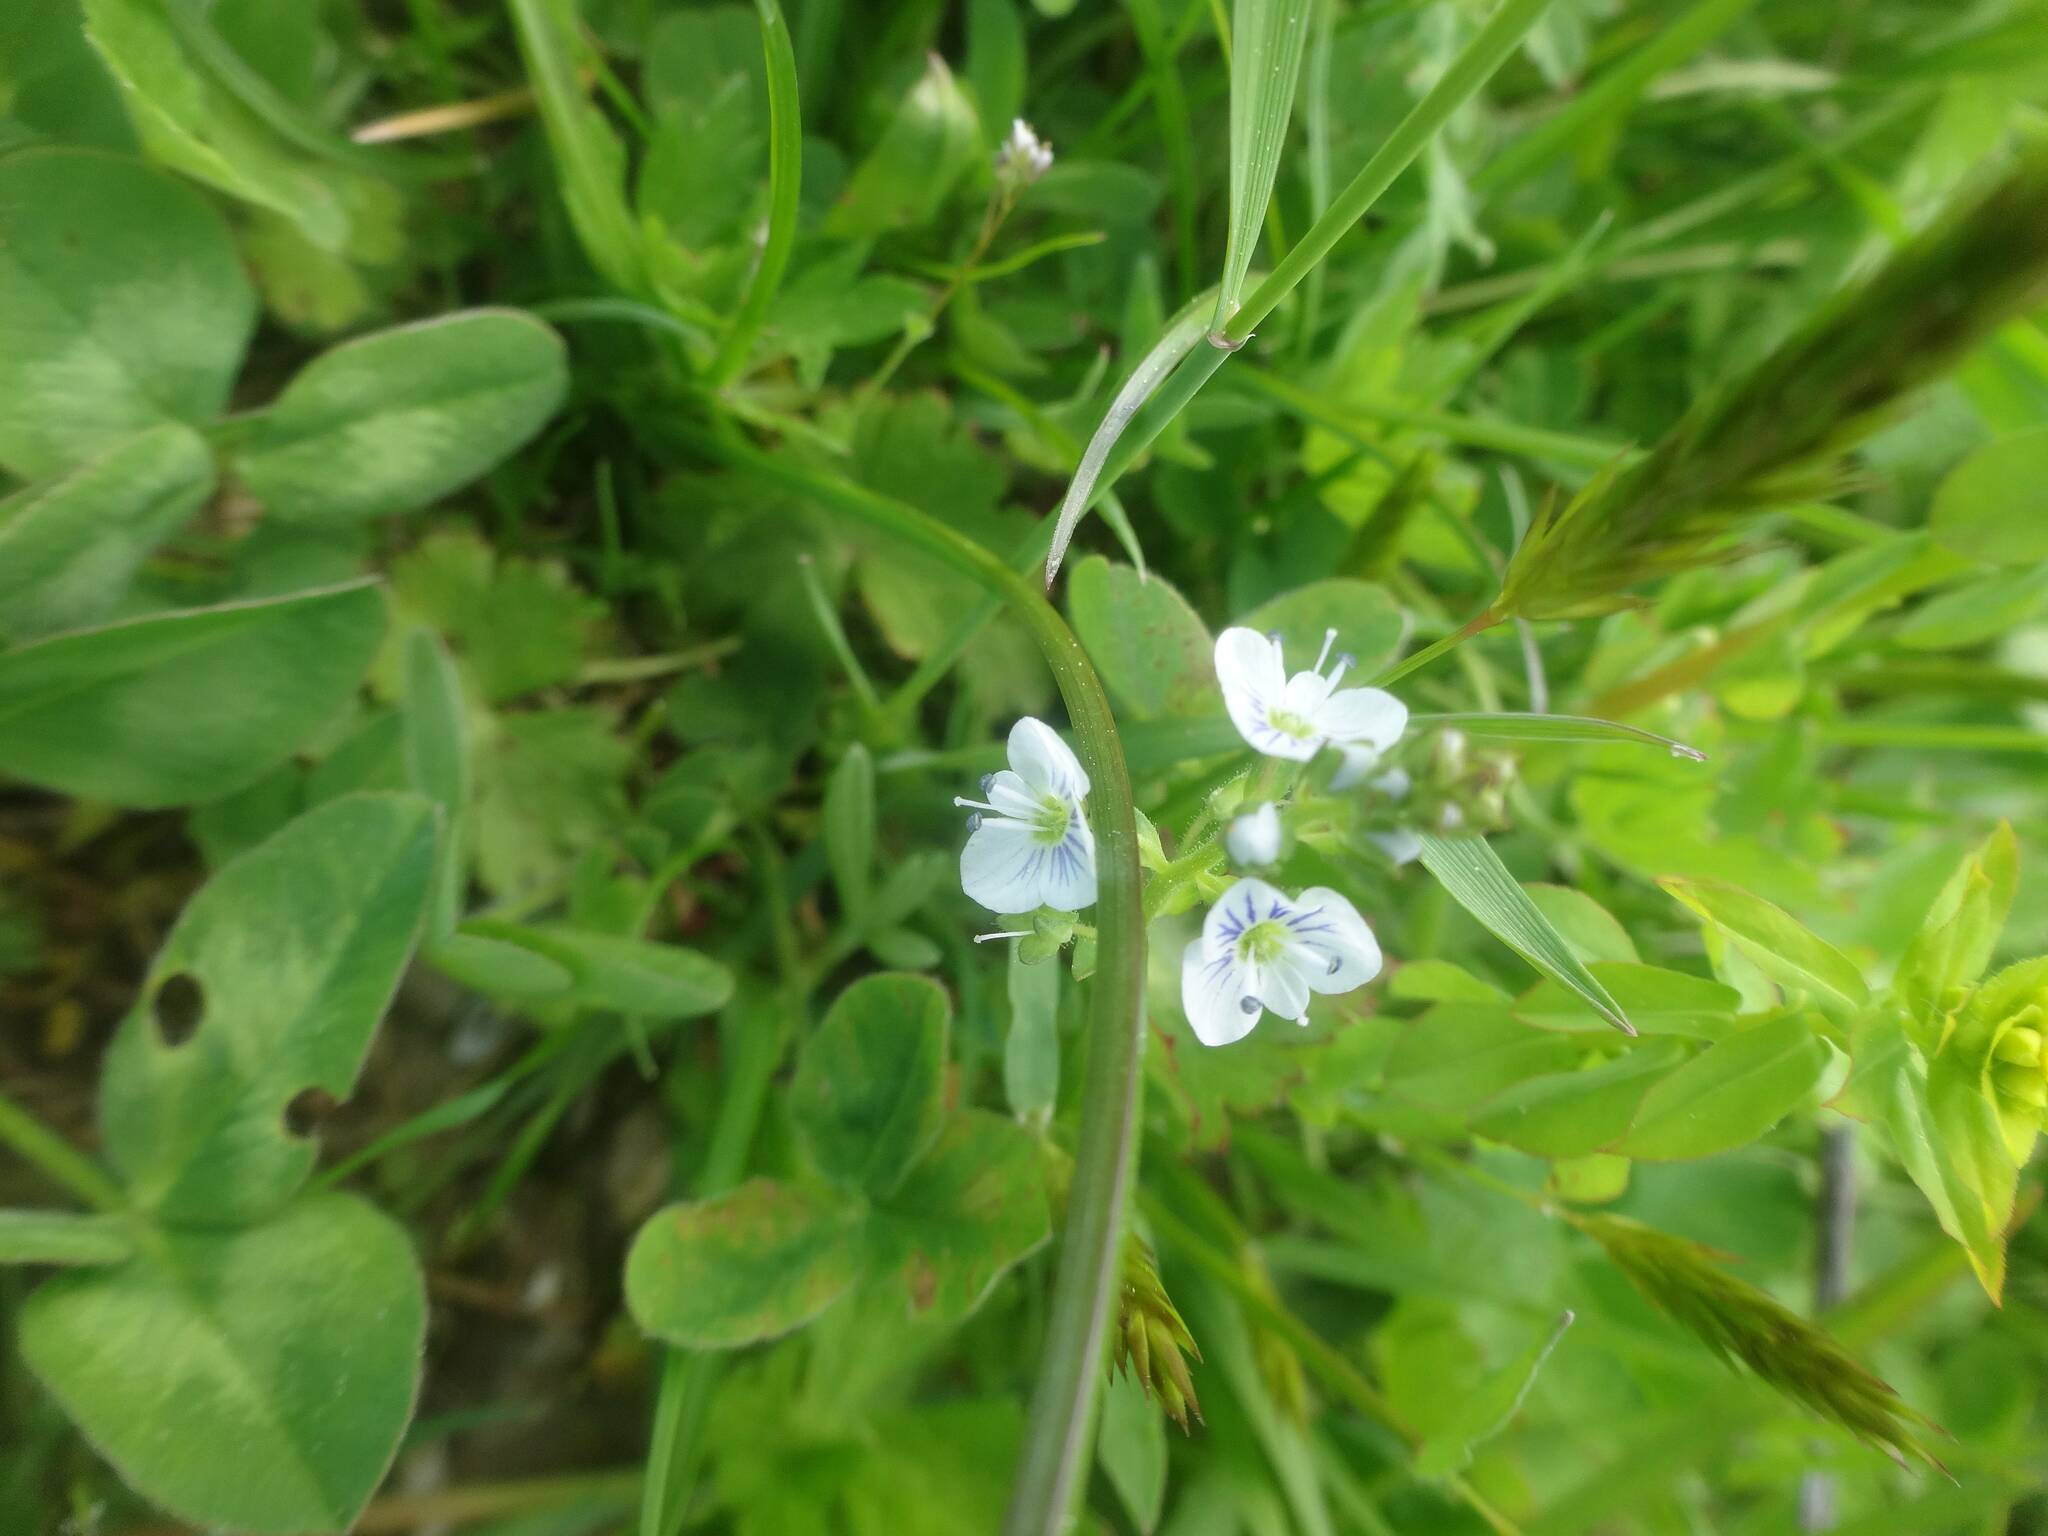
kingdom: Plantae
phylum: Tracheophyta
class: Magnoliopsida
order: Lamiales
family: Plantaginaceae
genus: Veronica
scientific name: Veronica serpyllifolia
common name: Thyme-leaved speedwell
